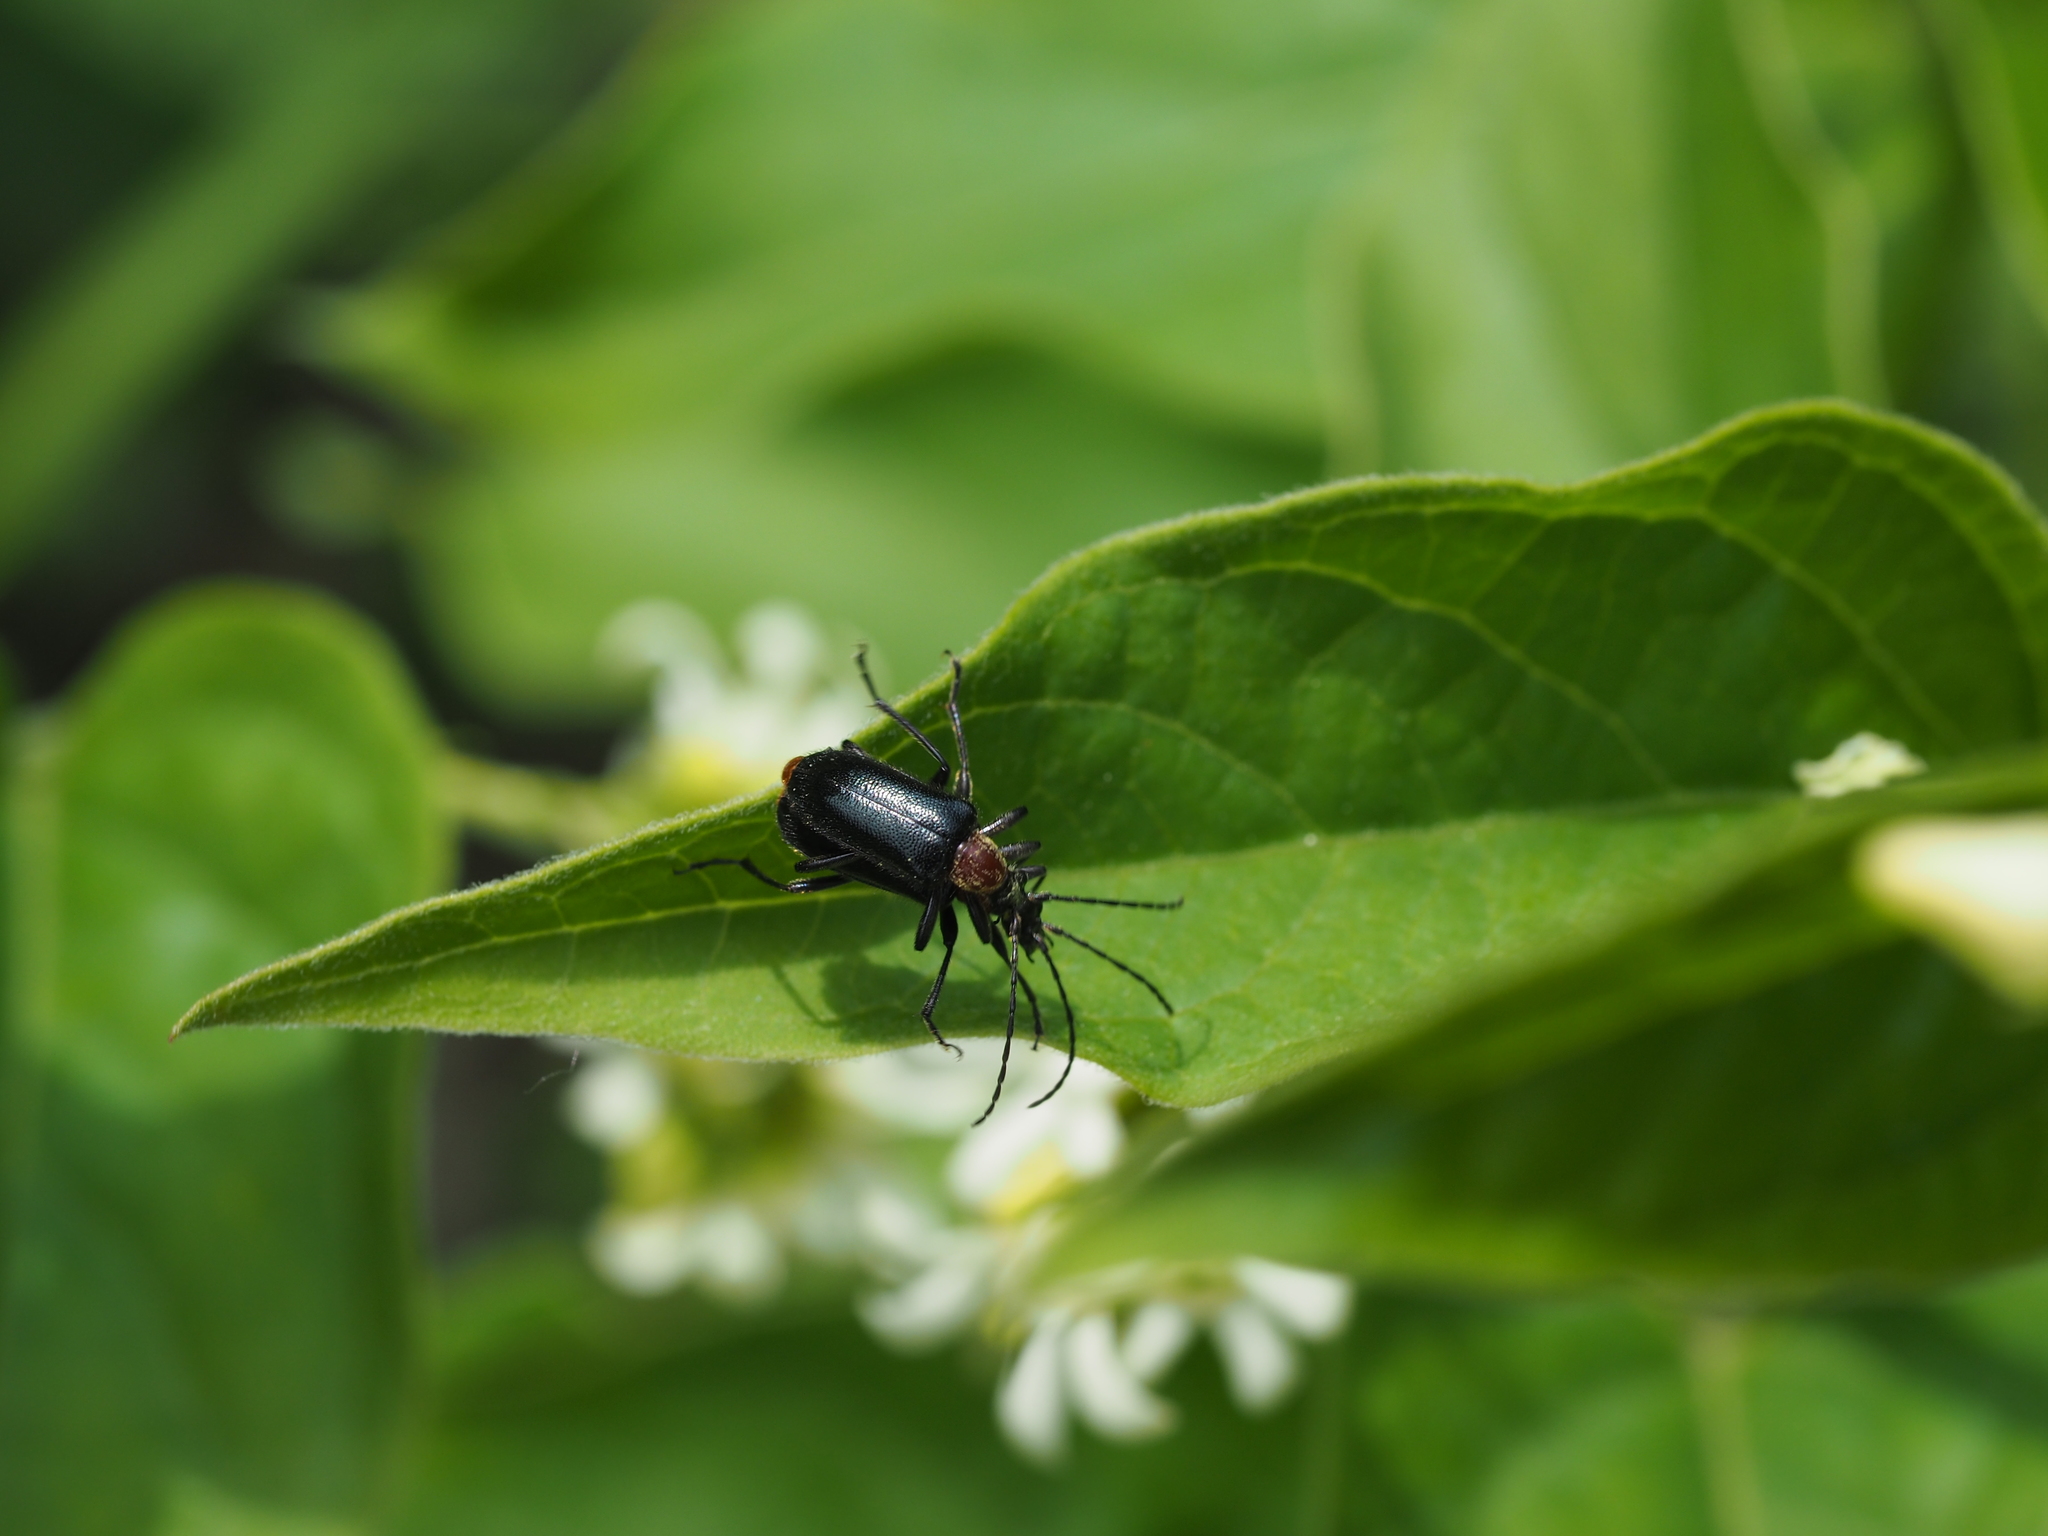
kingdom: Animalia
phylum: Arthropoda
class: Insecta
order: Coleoptera
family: Cerambycidae
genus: Dinoptera
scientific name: Dinoptera collaris
